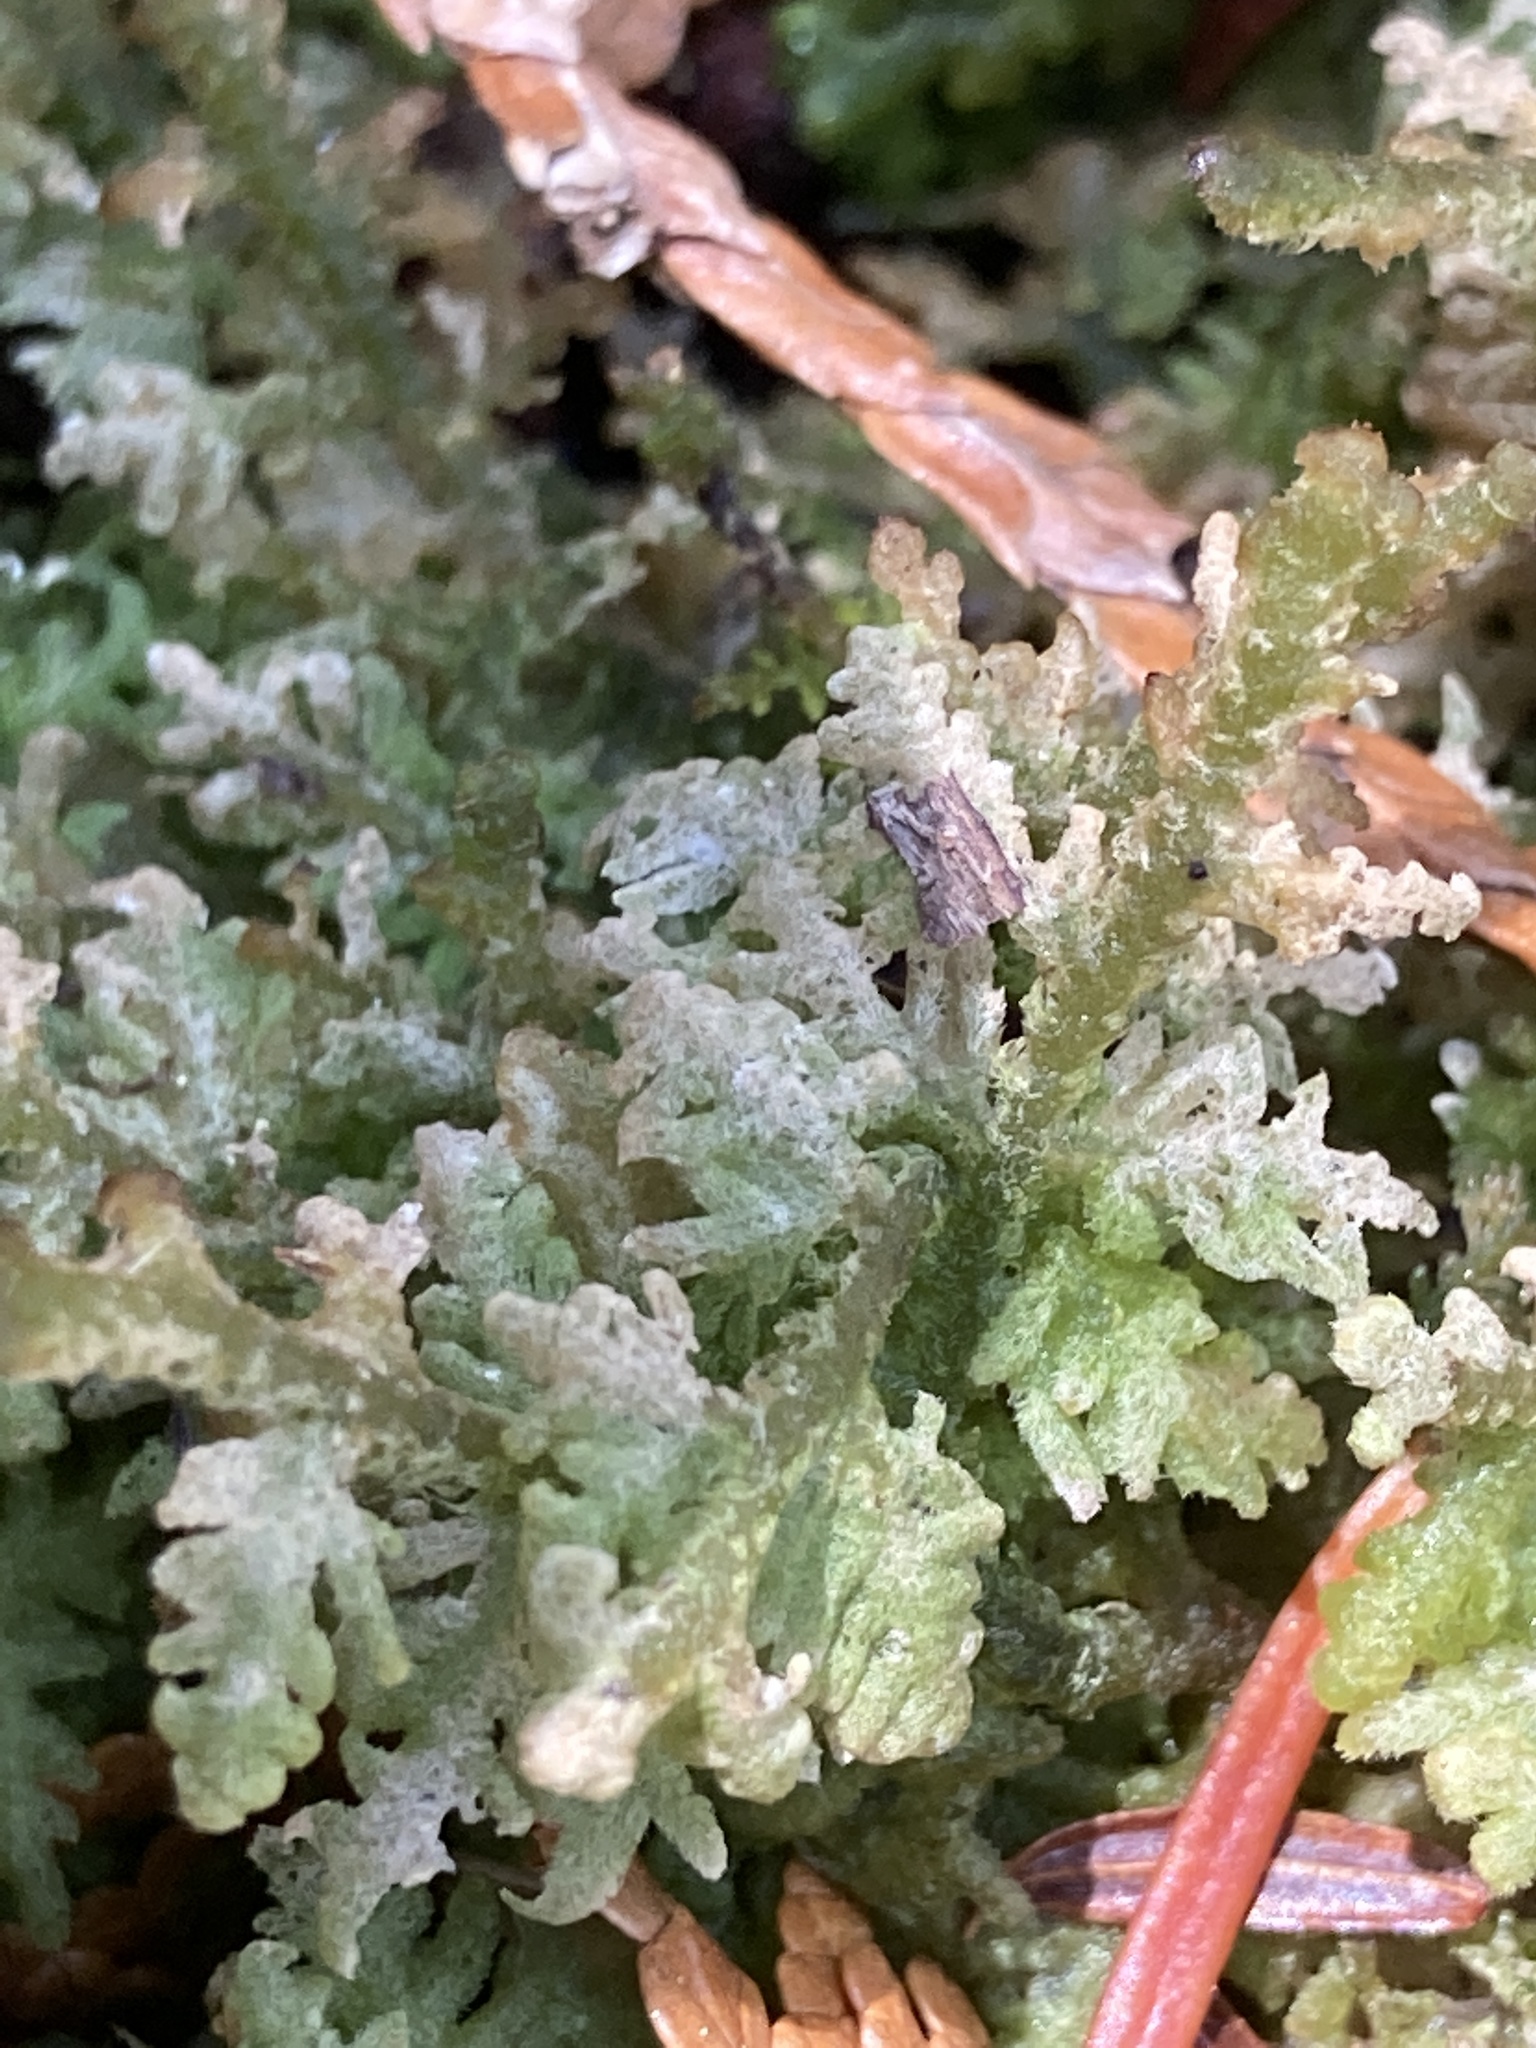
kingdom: Plantae
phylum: Marchantiophyta
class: Jungermanniopsida
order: Jungermanniales
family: Trichocoleaceae
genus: Trichocolea
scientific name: Trichocolea tomentella
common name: Woolly liverwort
